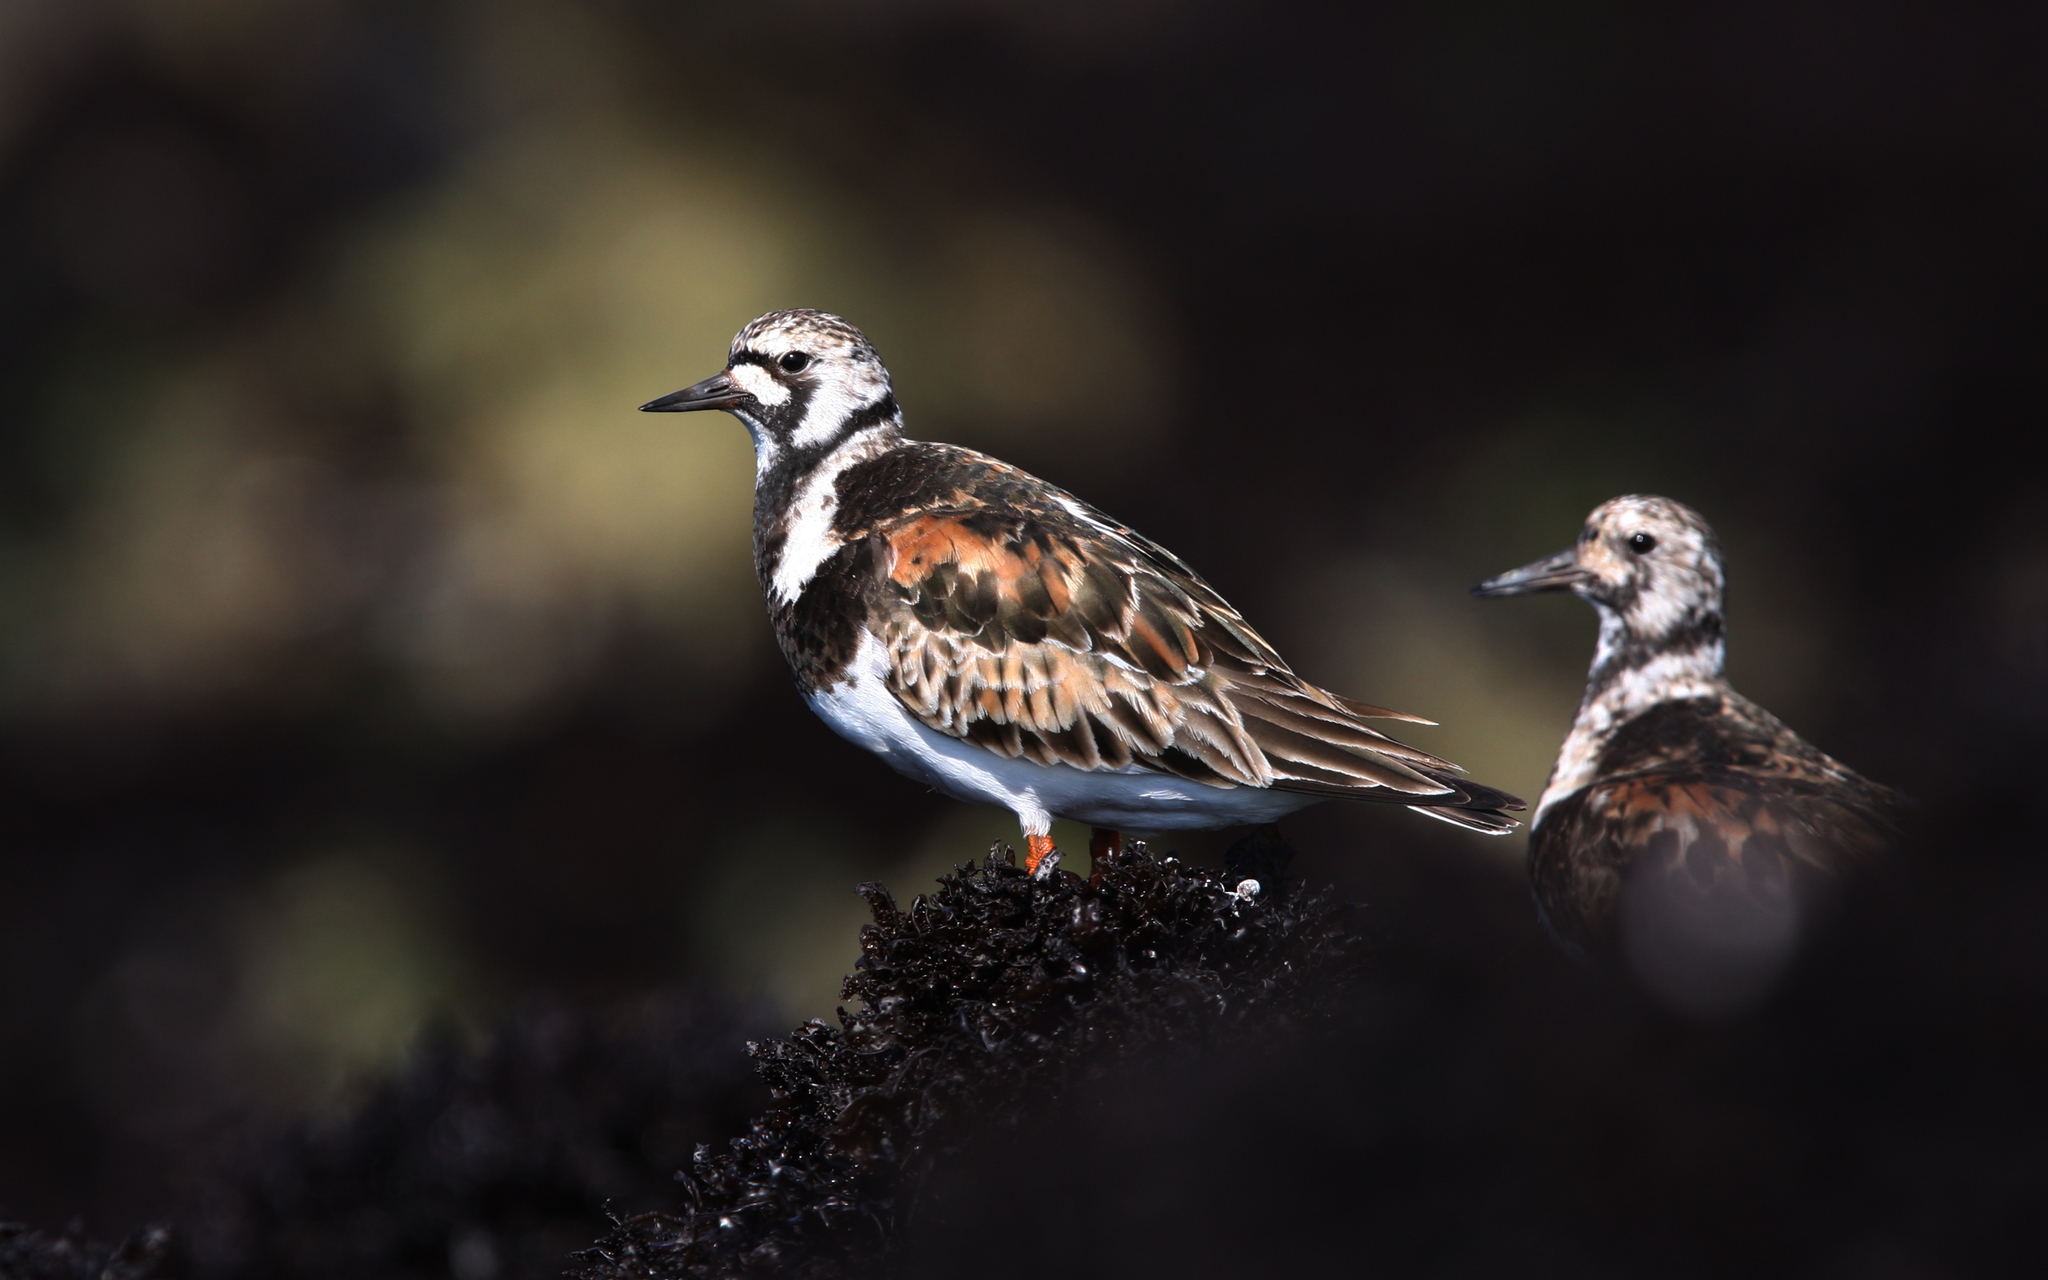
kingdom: Animalia
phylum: Chordata
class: Aves
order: Charadriiformes
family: Scolopacidae
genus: Arenaria
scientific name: Arenaria interpres
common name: Ruddy turnstone
